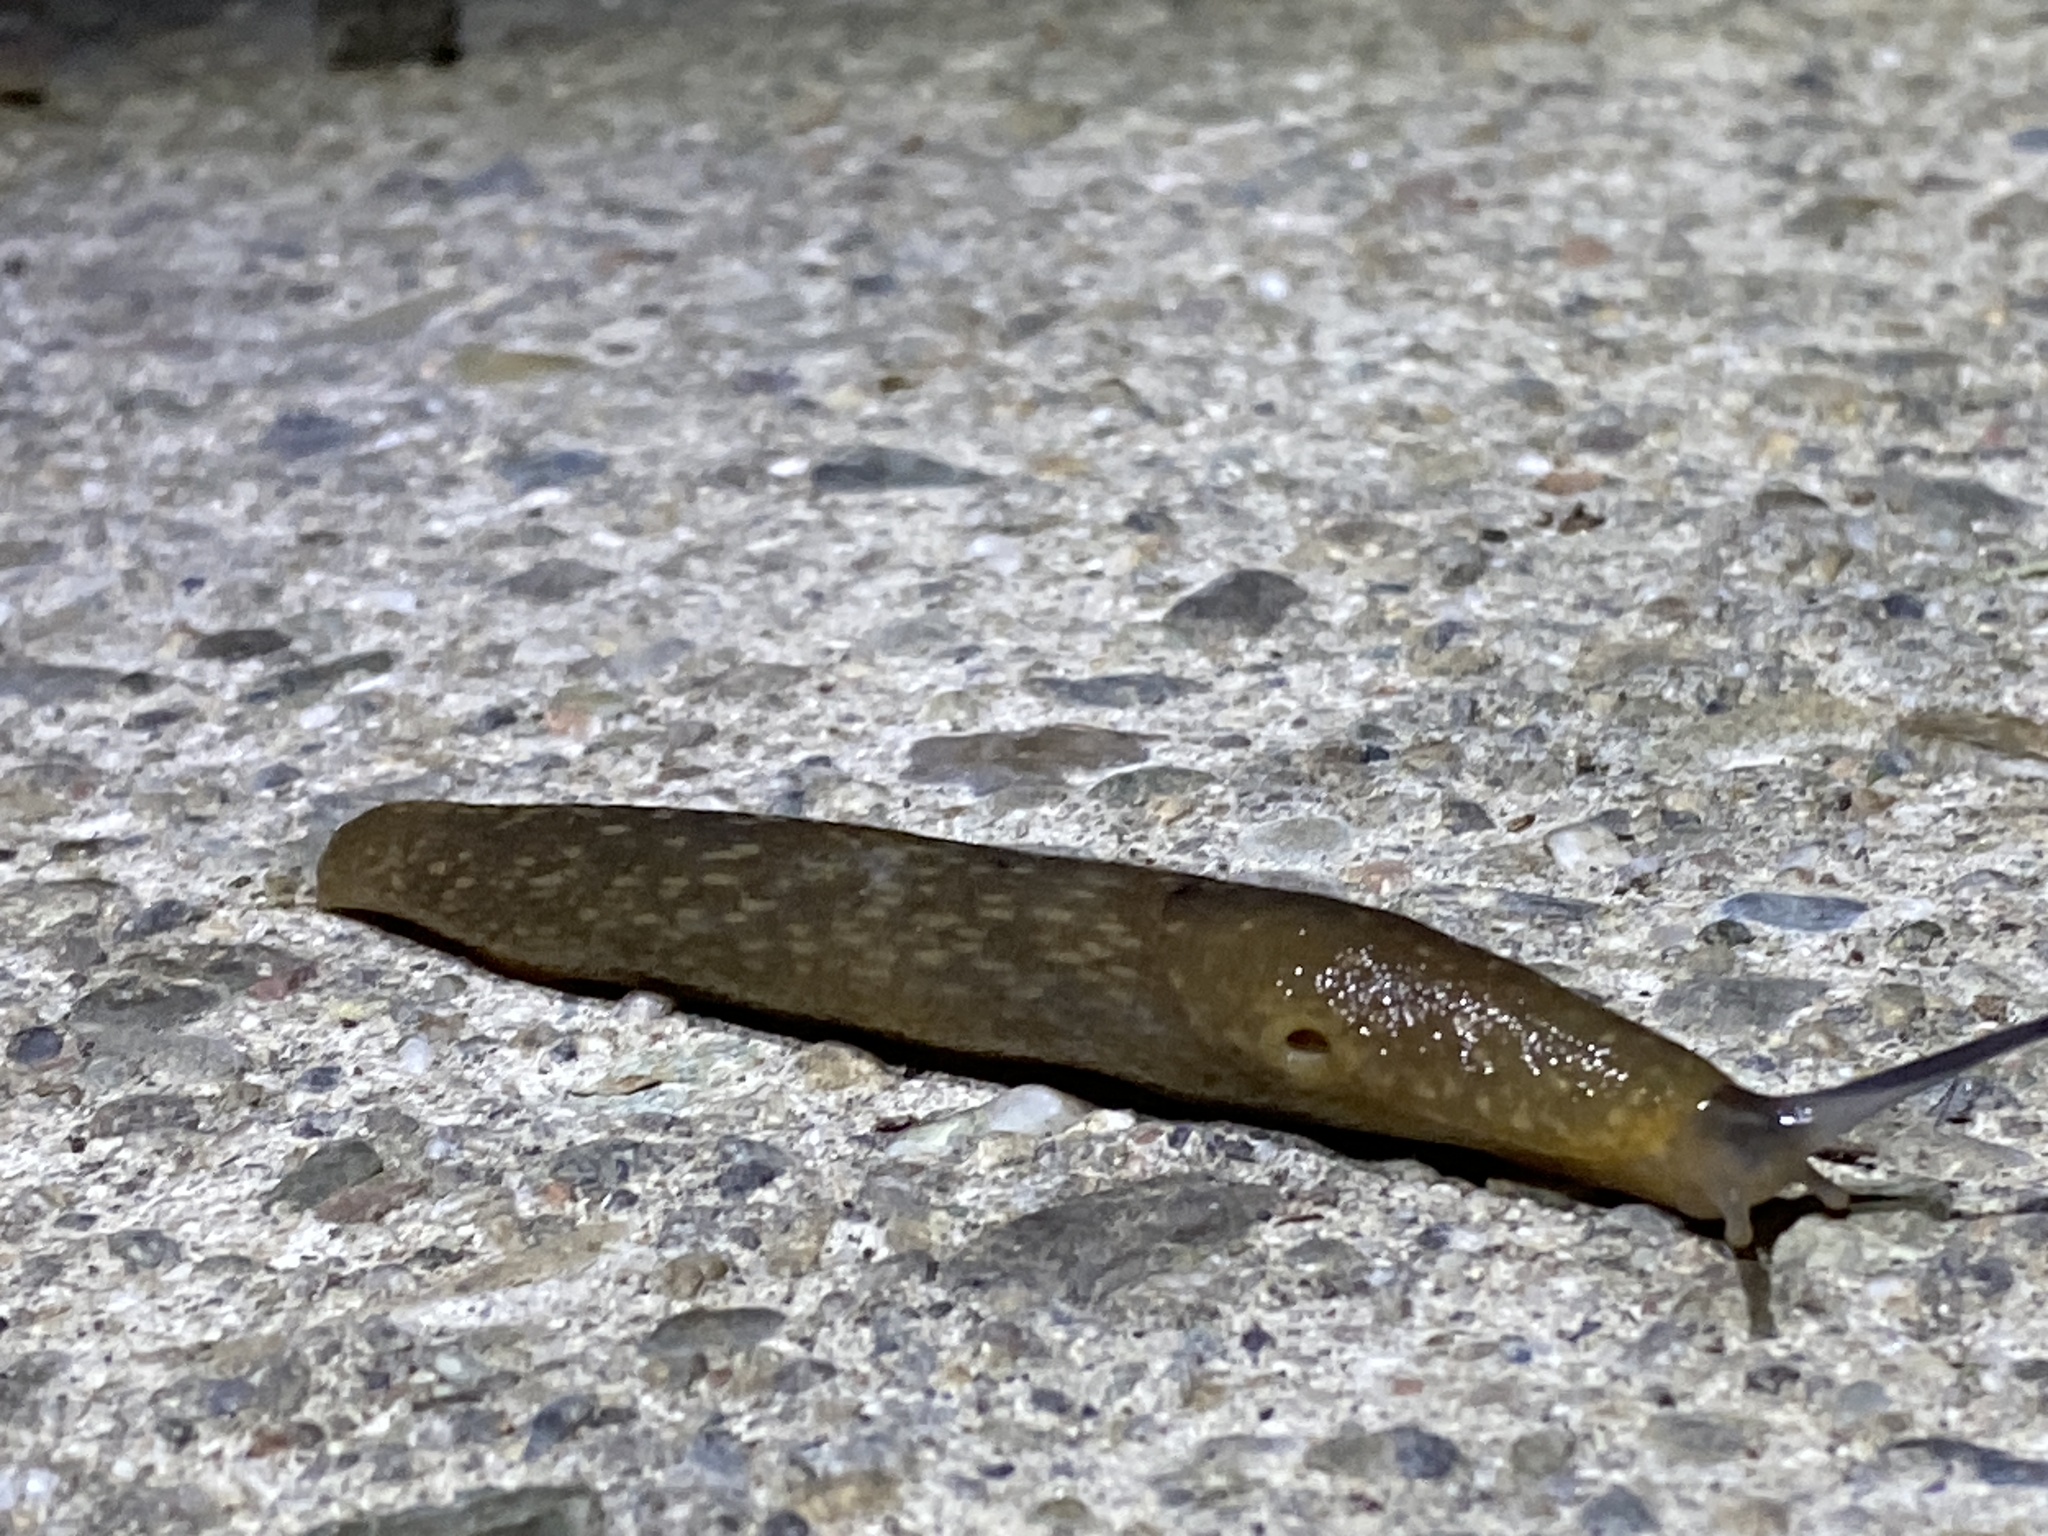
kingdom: Animalia
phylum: Mollusca
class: Gastropoda
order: Stylommatophora
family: Limacidae
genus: Limacus
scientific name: Limacus flavus
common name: Yellow gardenslug
